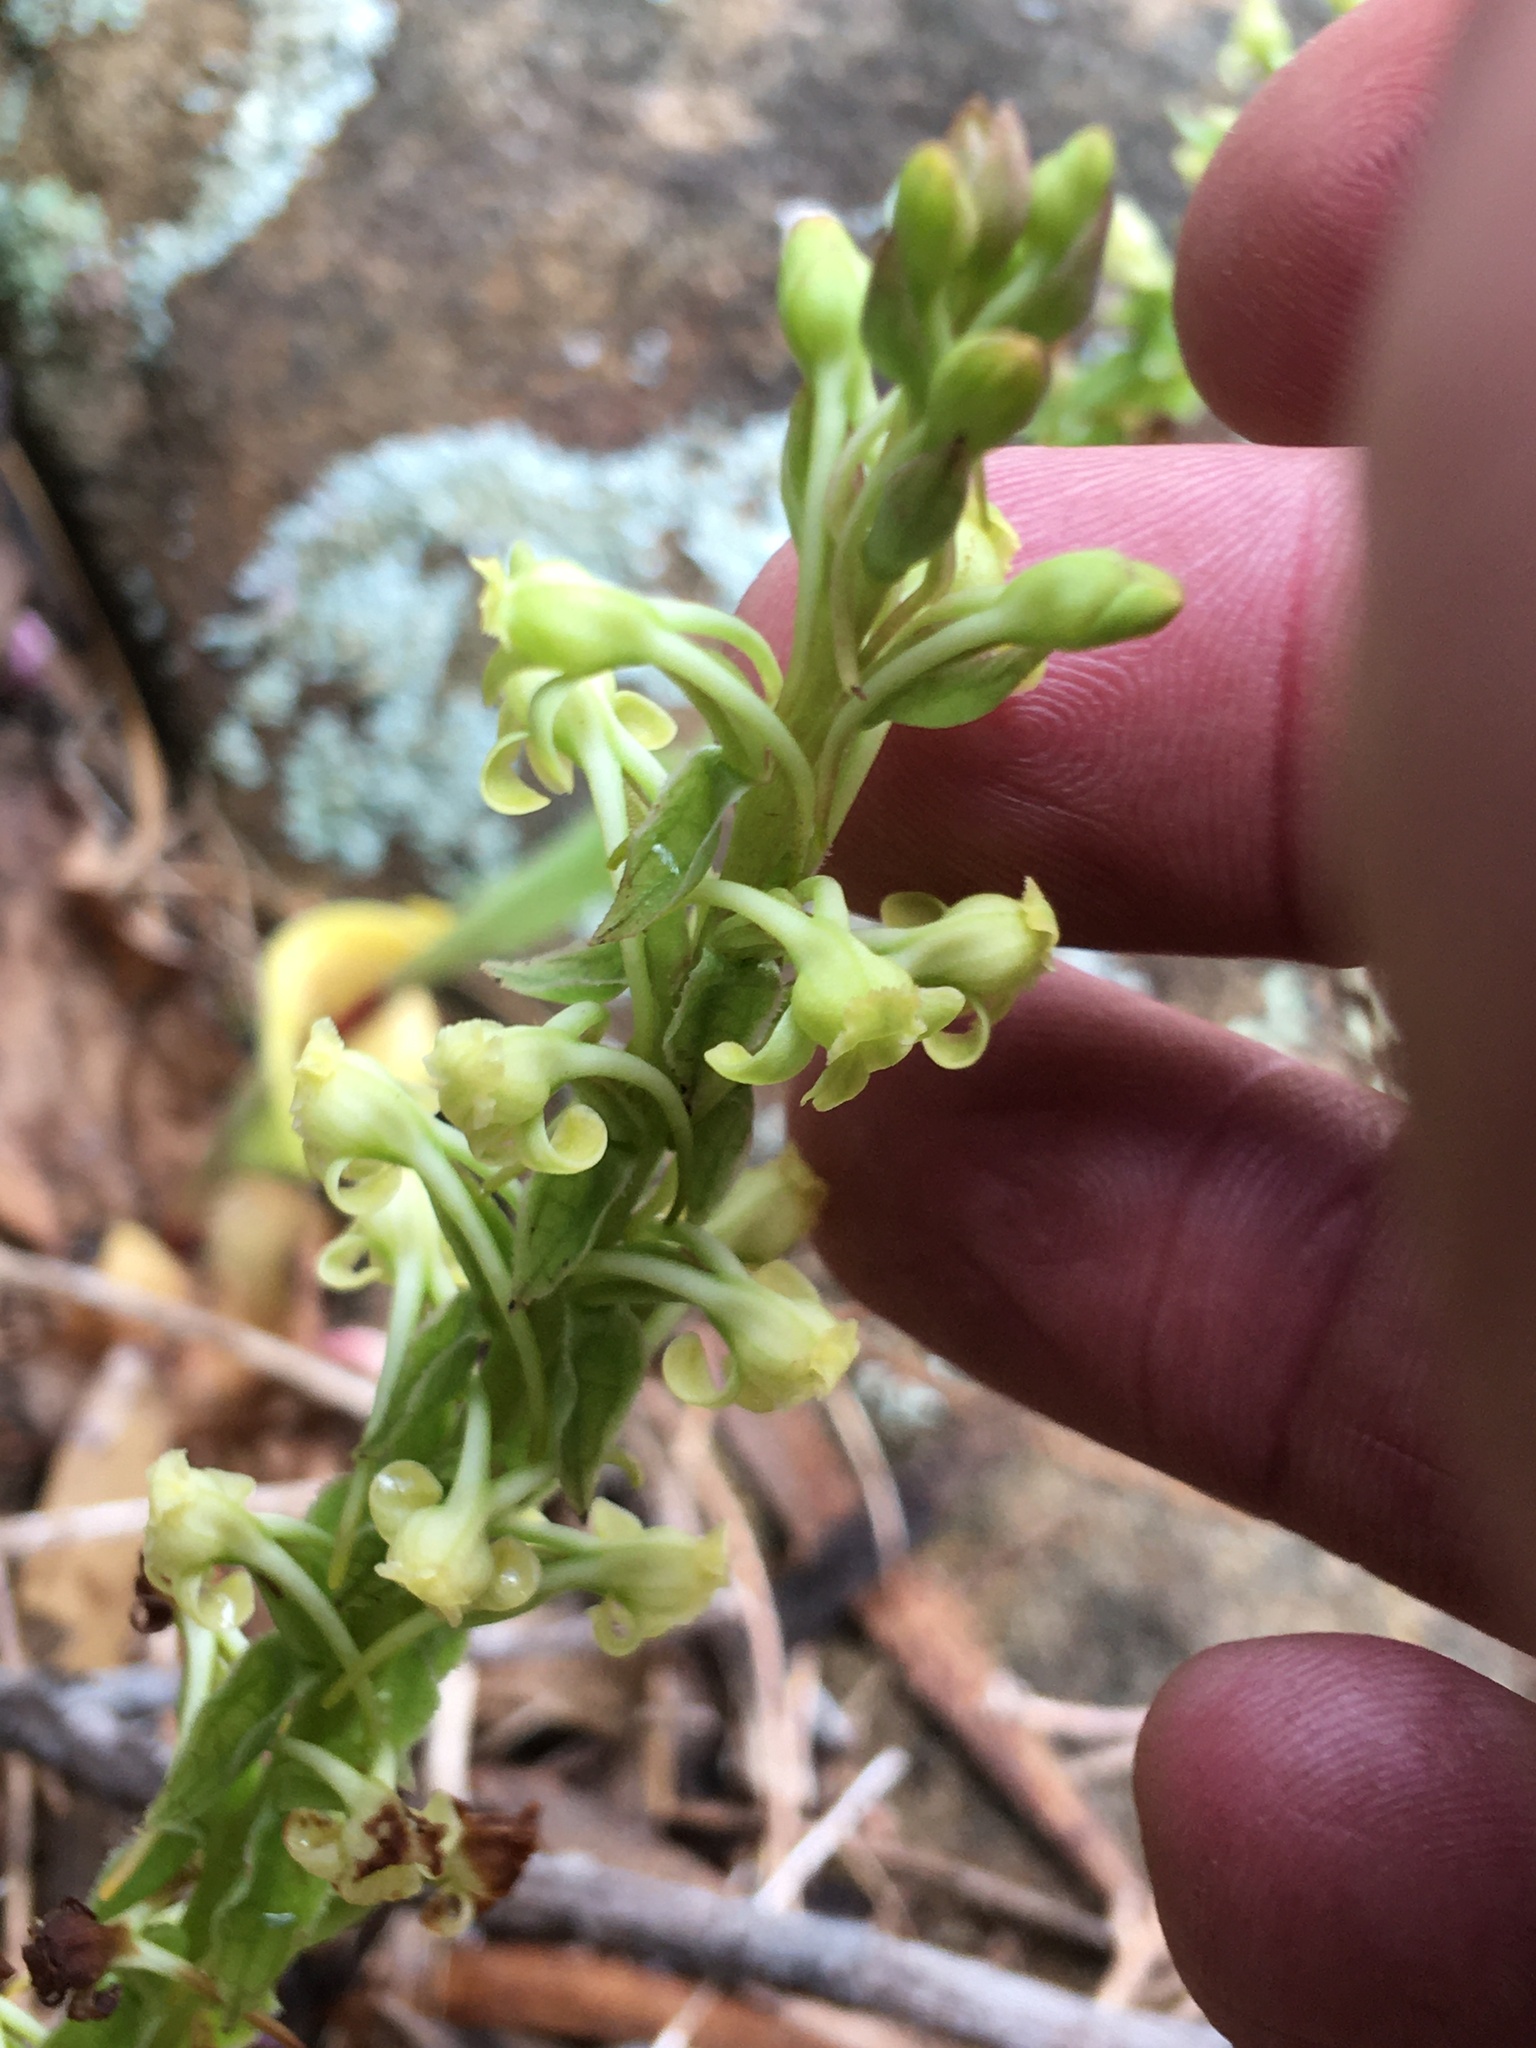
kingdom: Plantae
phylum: Tracheophyta
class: Liliopsida
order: Asparagales
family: Orchidaceae
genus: Satyrium
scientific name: Satyrium humile
